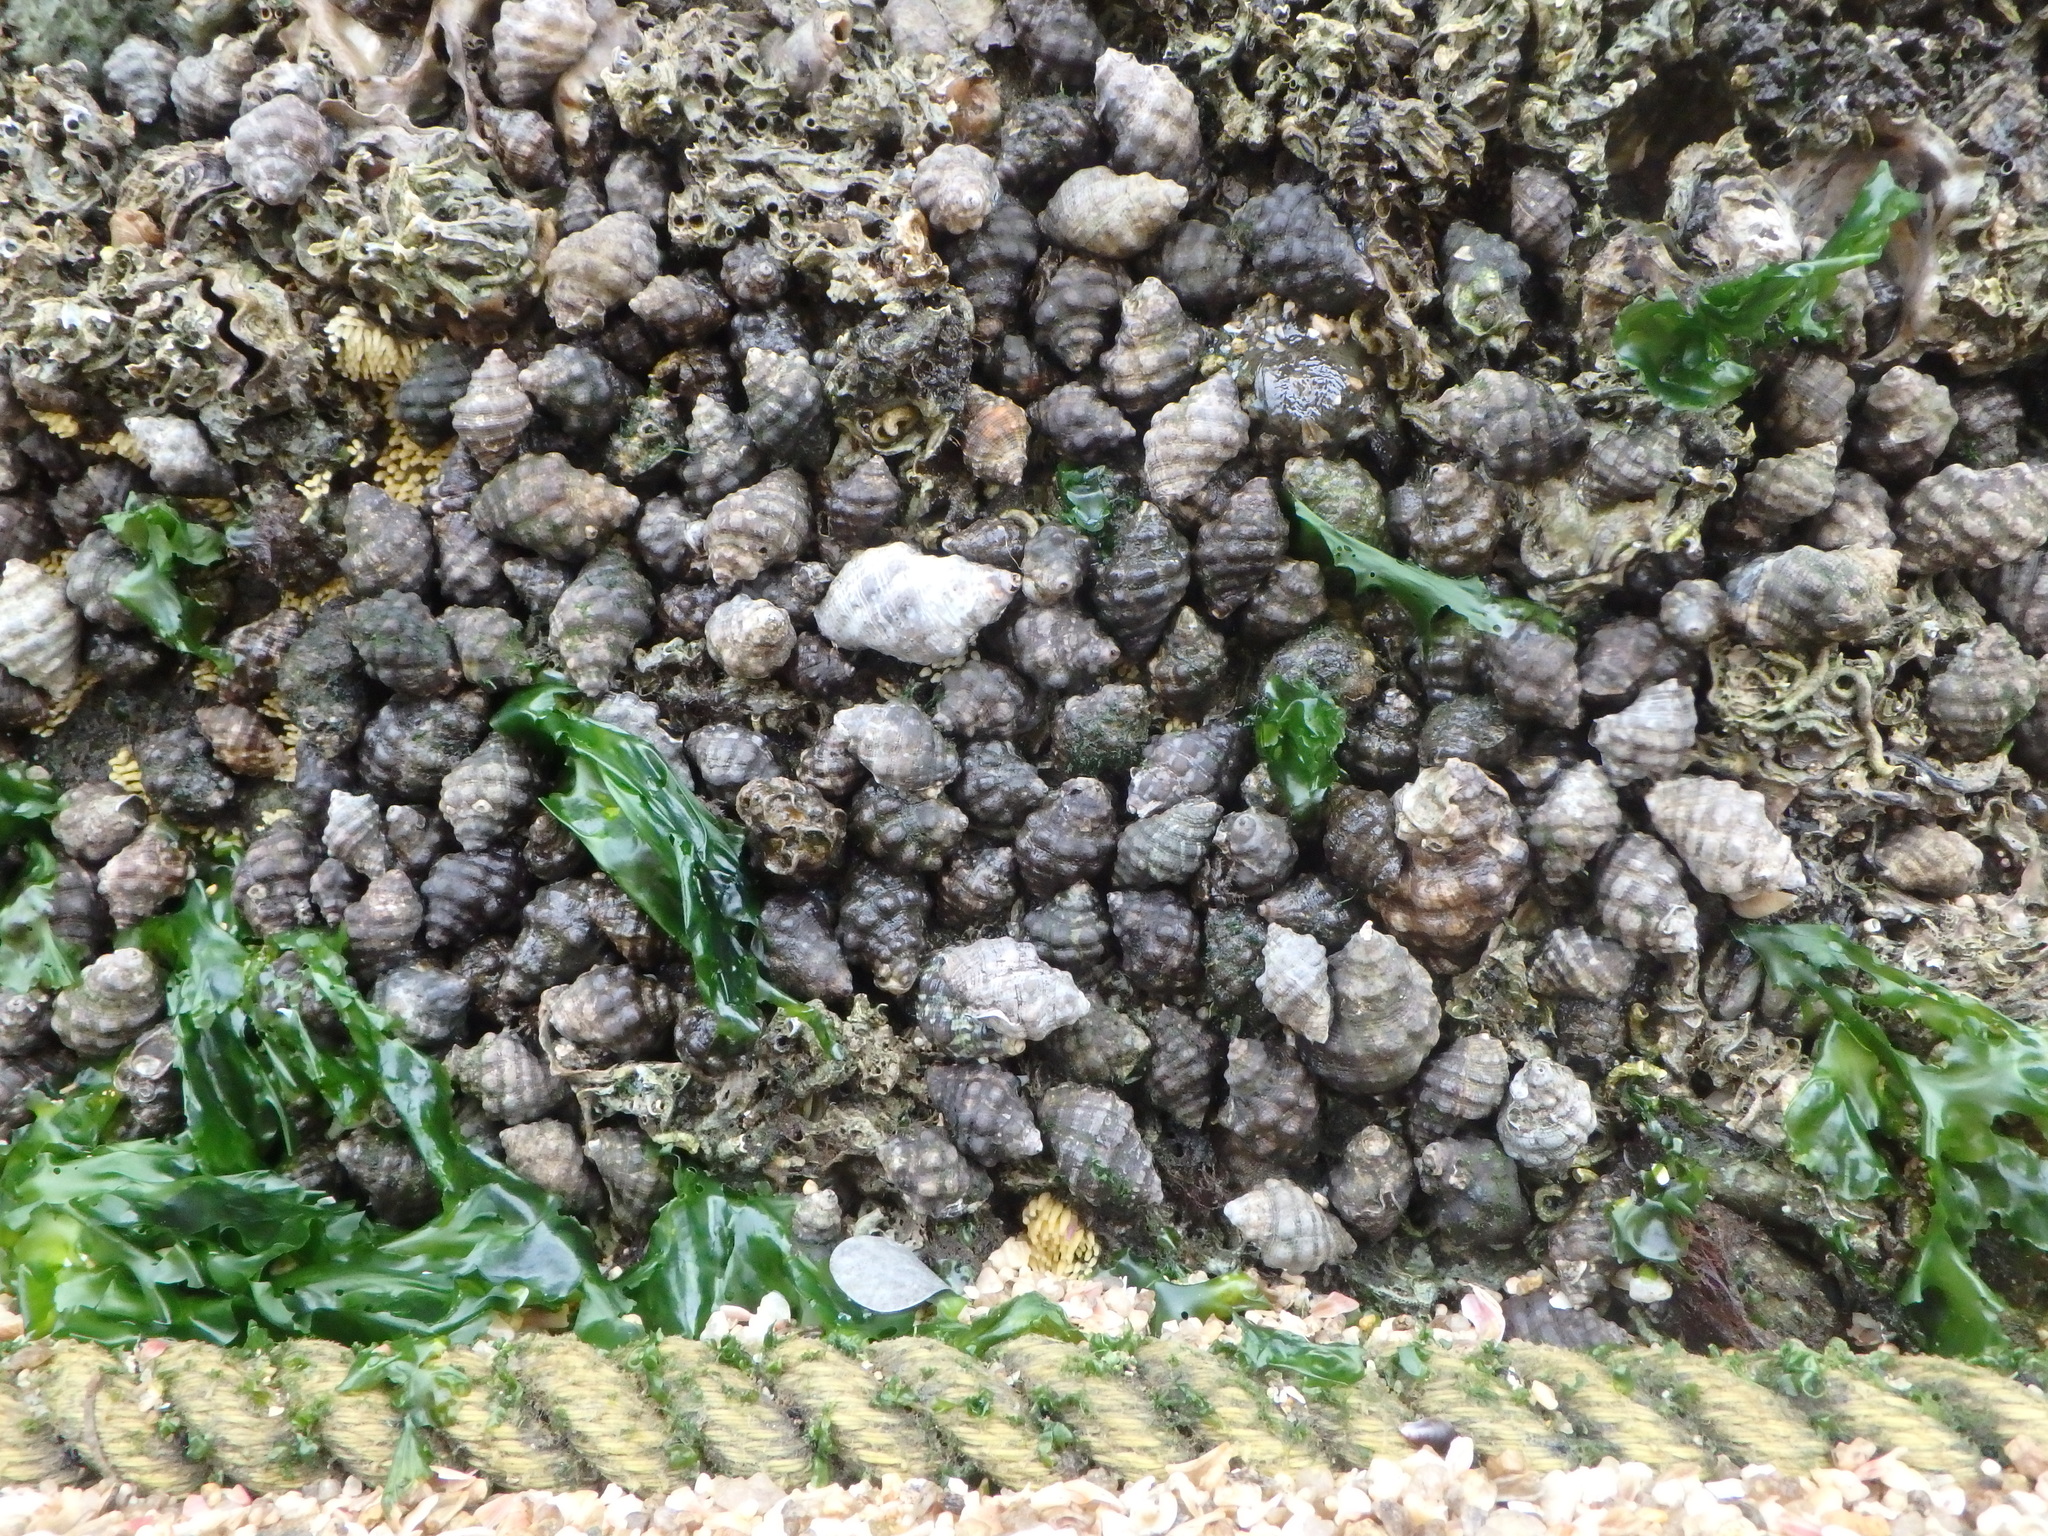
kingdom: Animalia
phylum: Mollusca
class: Gastropoda
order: Neogastropoda
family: Muricidae
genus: Reishia
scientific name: Reishia clavigera
